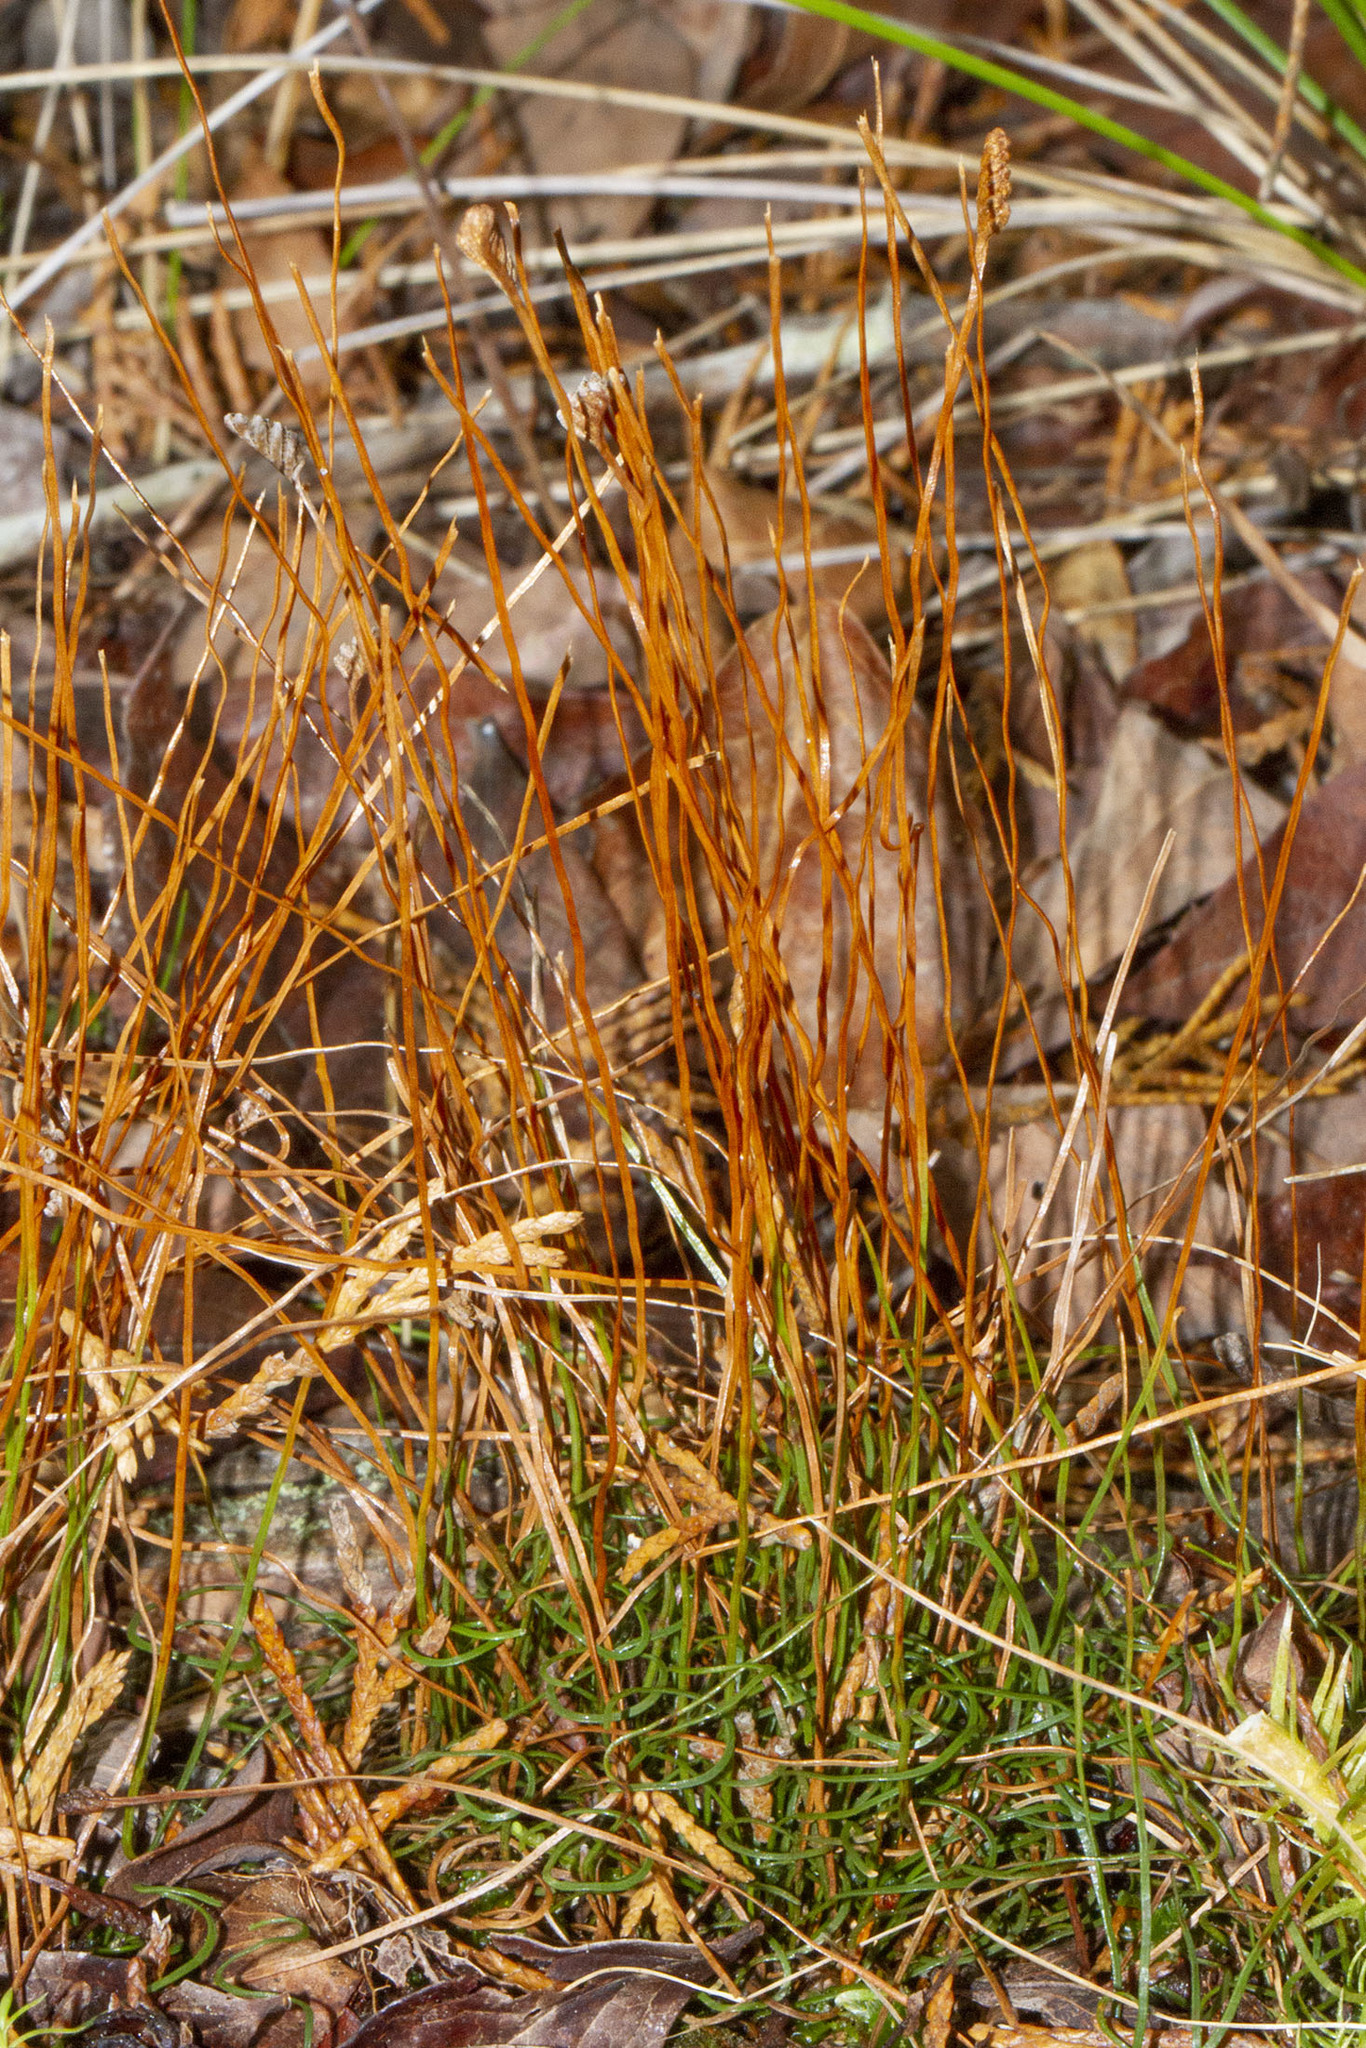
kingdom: Plantae
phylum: Tracheophyta
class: Polypodiopsida
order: Schizaeales
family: Schizaeaceae
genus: Schizaea
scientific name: Schizaea pusilla
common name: Curly-grass fern
